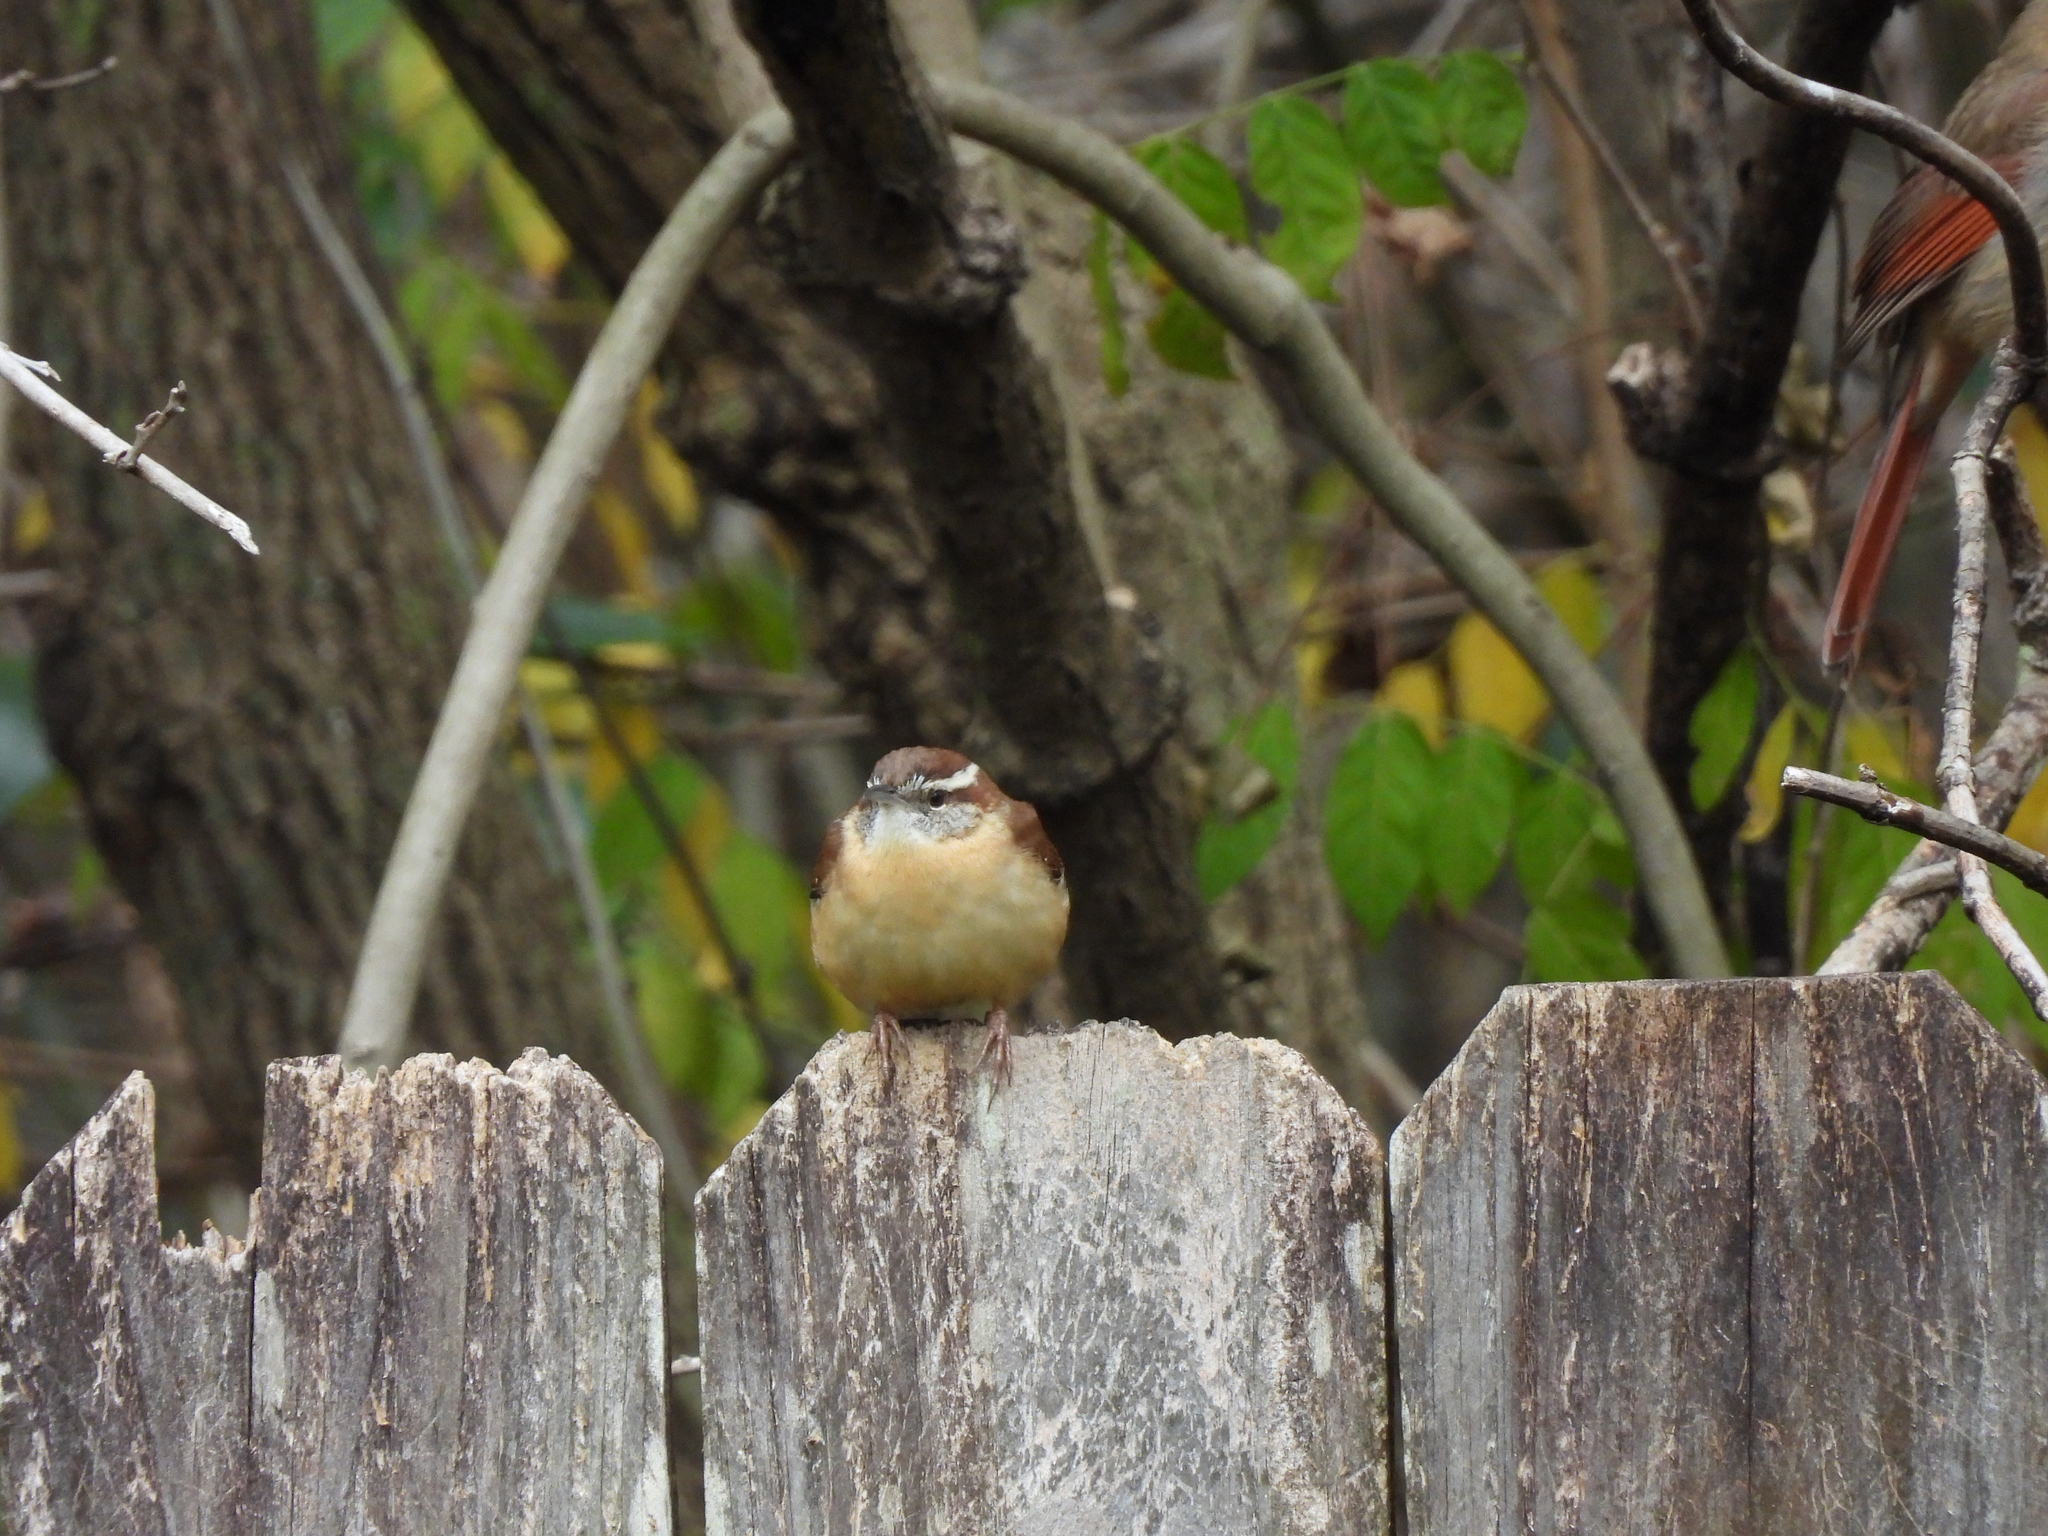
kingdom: Animalia
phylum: Chordata
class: Aves
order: Passeriformes
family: Troglodytidae
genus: Thryothorus
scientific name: Thryothorus ludovicianus
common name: Carolina wren
